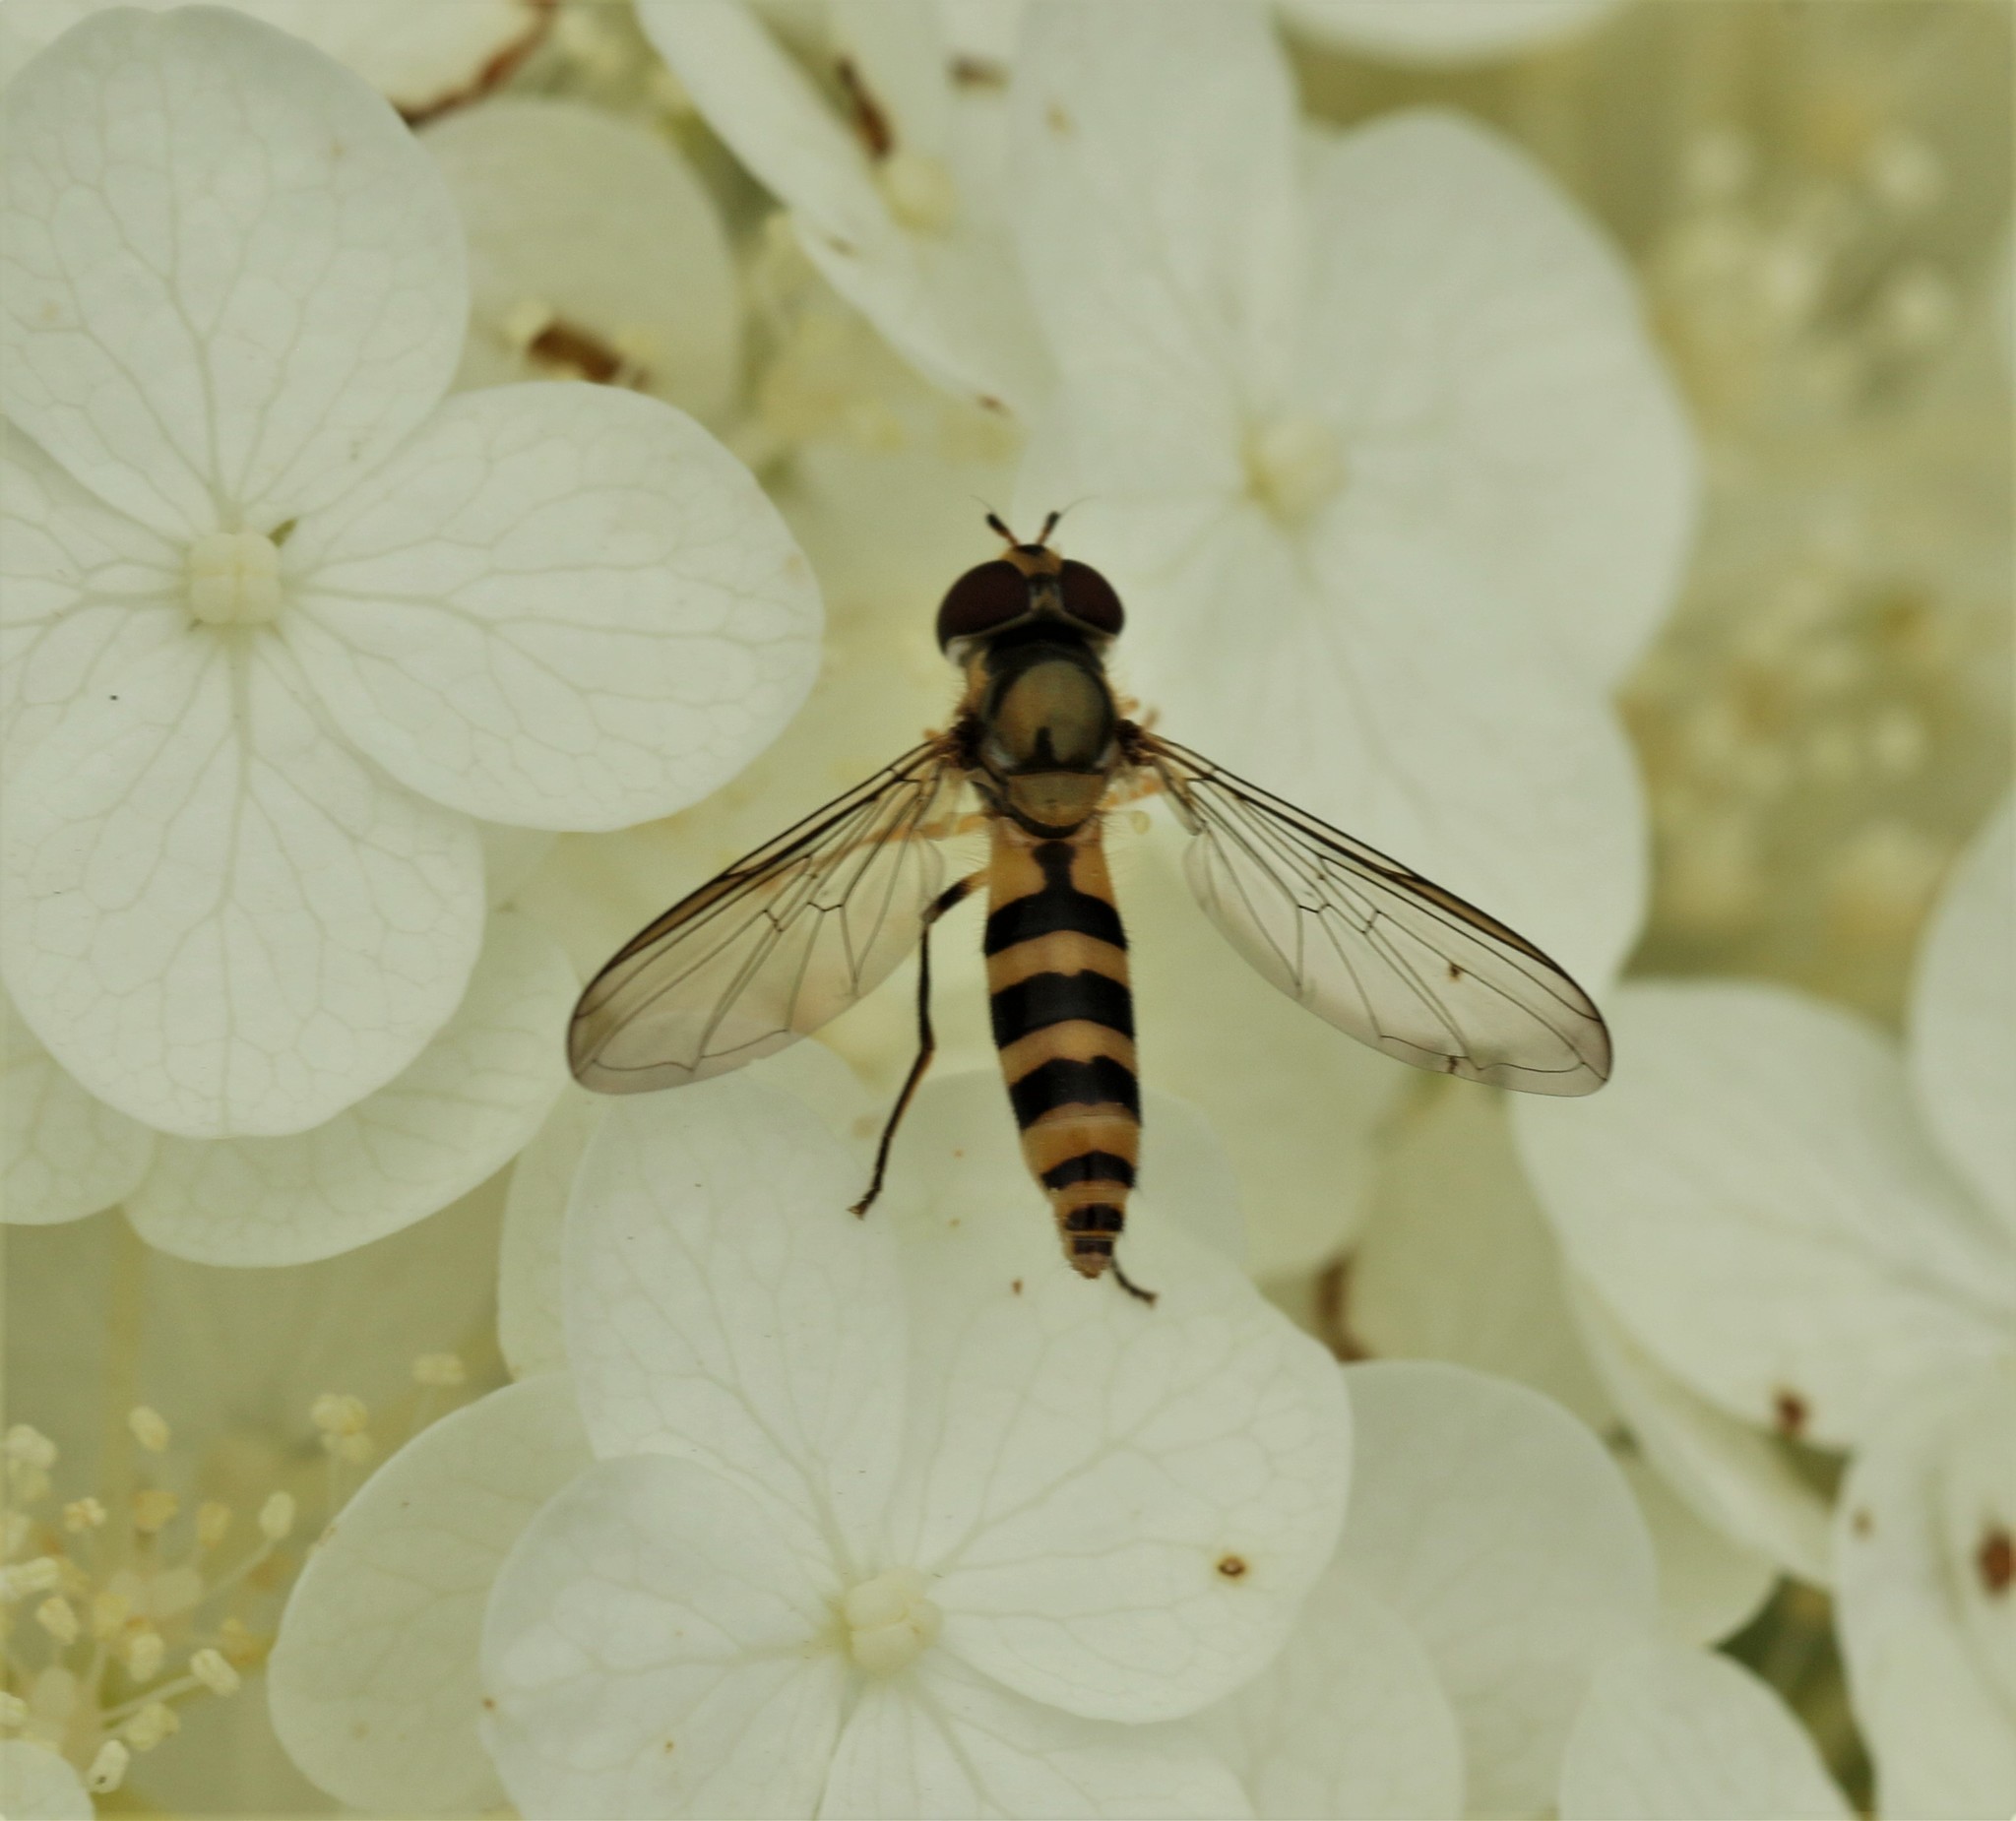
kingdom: Animalia
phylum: Arthropoda
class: Insecta
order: Diptera
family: Syrphidae
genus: Meliscaeva
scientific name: Meliscaeva cinctella
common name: American thintail fly
